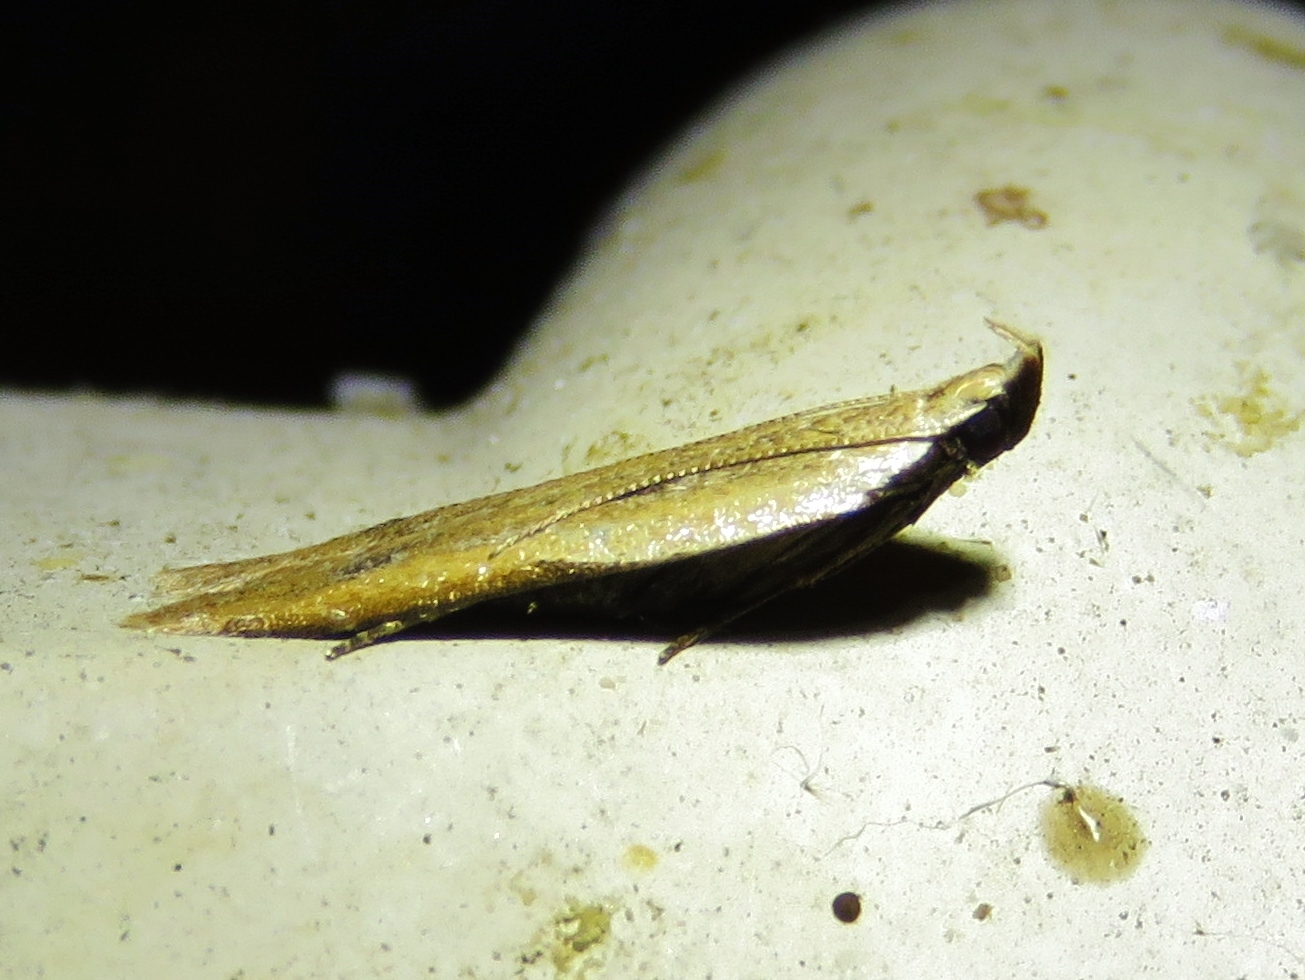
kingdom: Animalia
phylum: Arthropoda
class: Insecta
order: Lepidoptera
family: Gelechiidae
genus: Mesophleps
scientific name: Mesophleps adustipennis
